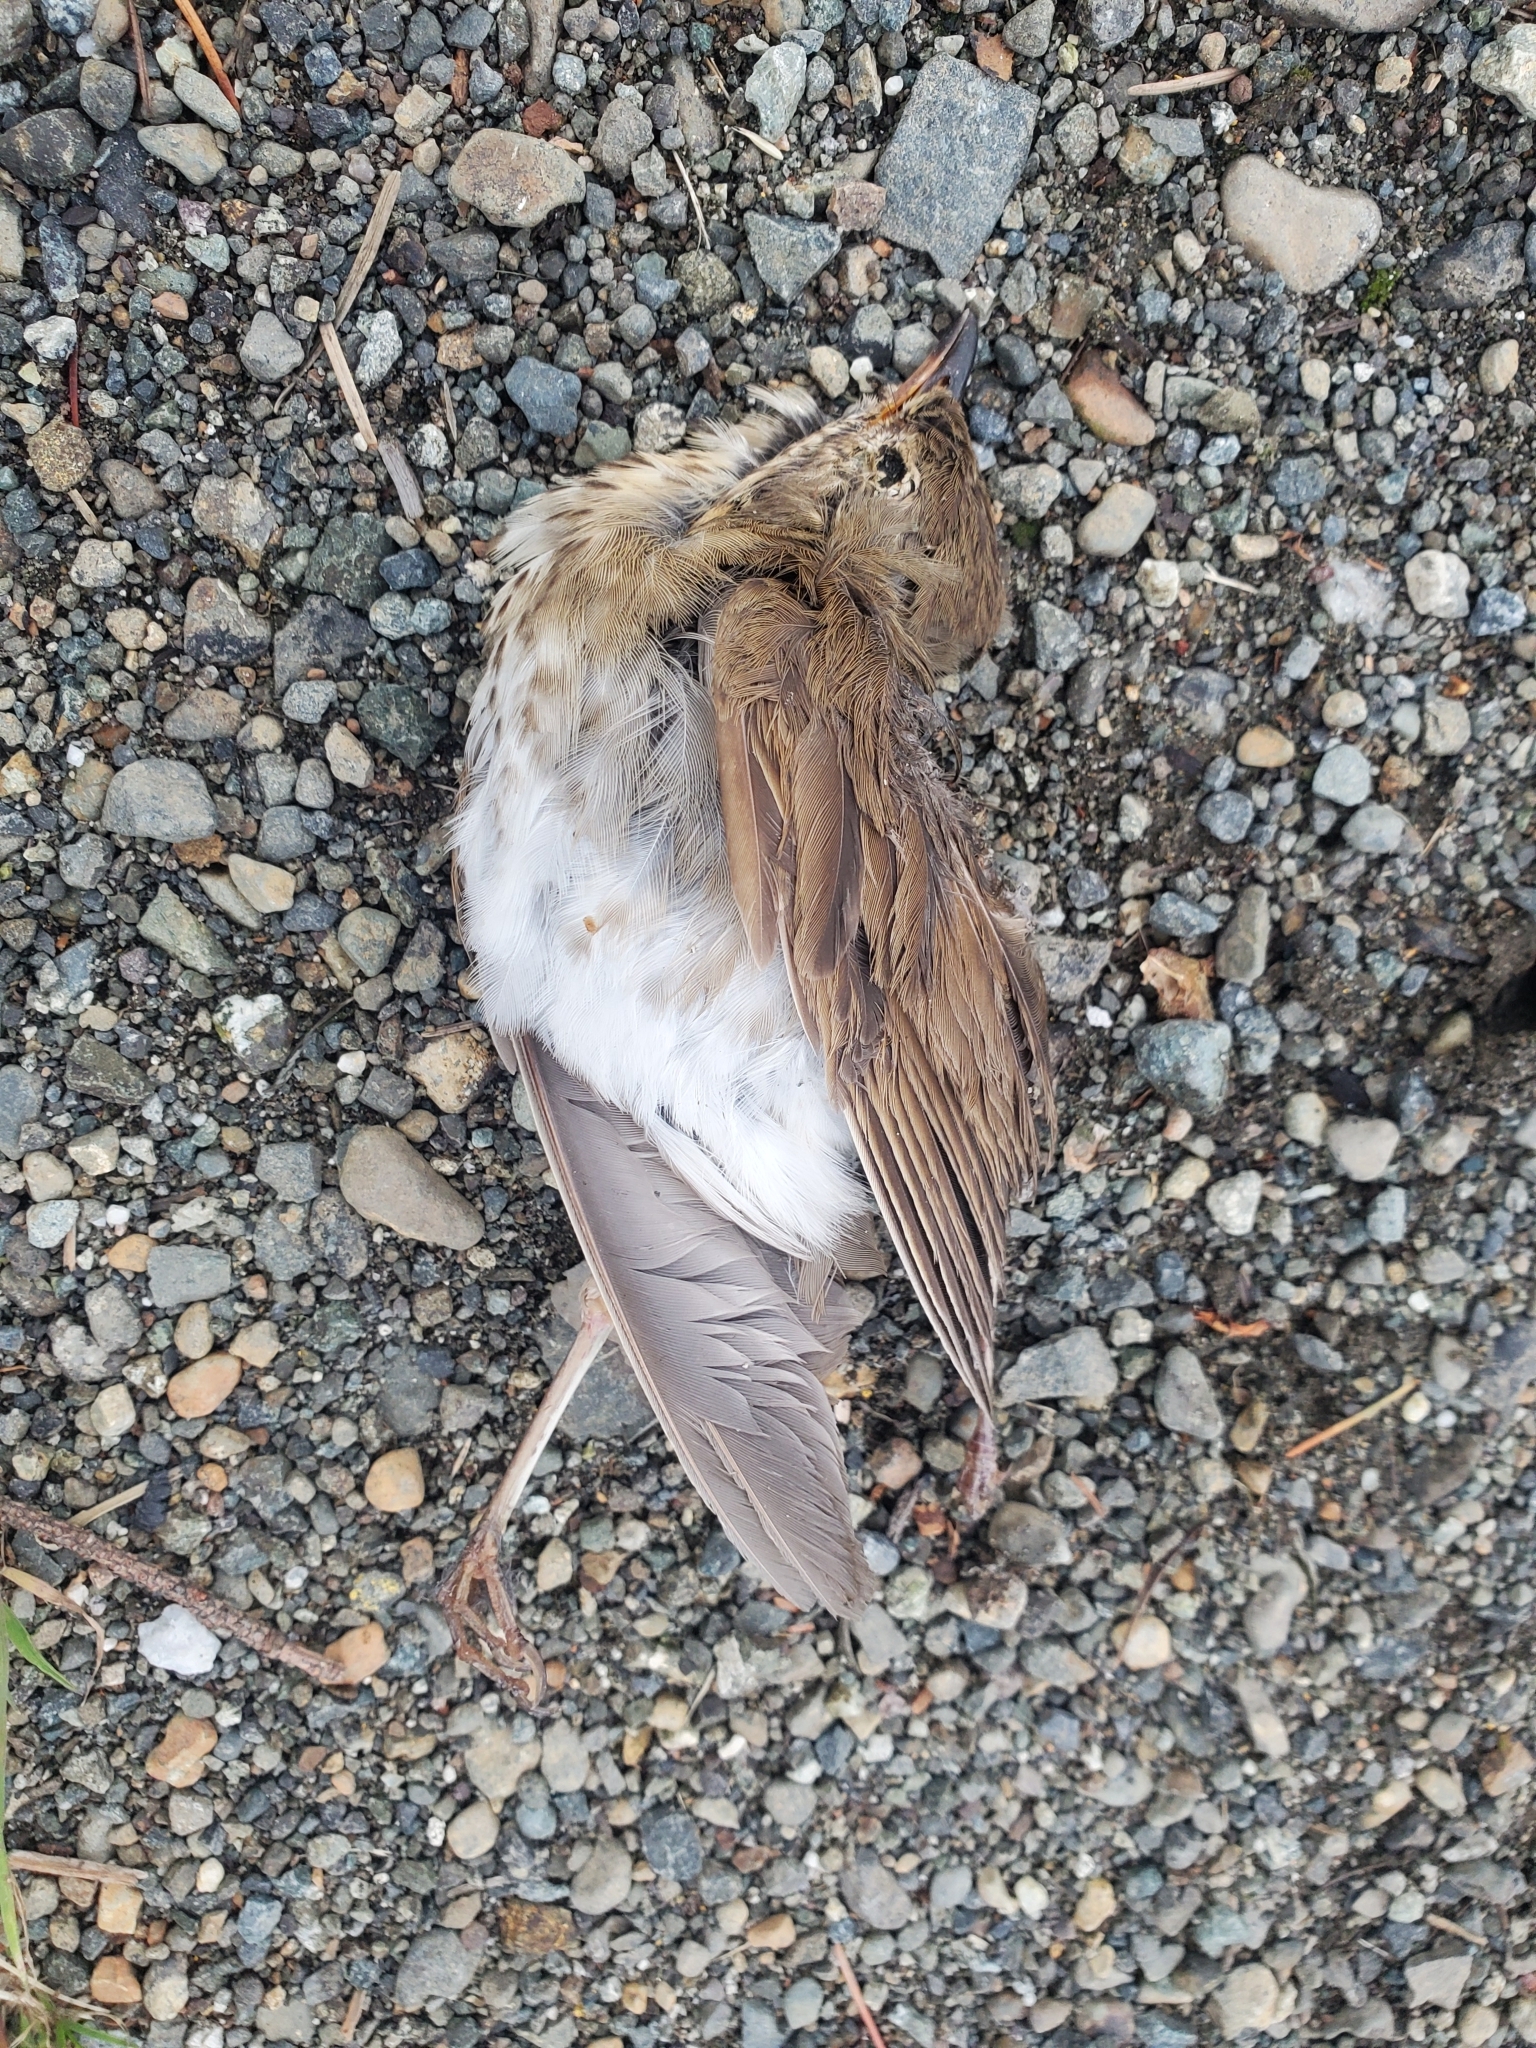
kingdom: Animalia
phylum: Chordata
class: Aves
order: Passeriformes
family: Turdidae
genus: Catharus
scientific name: Catharus ustulatus
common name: Swainson's thrush
